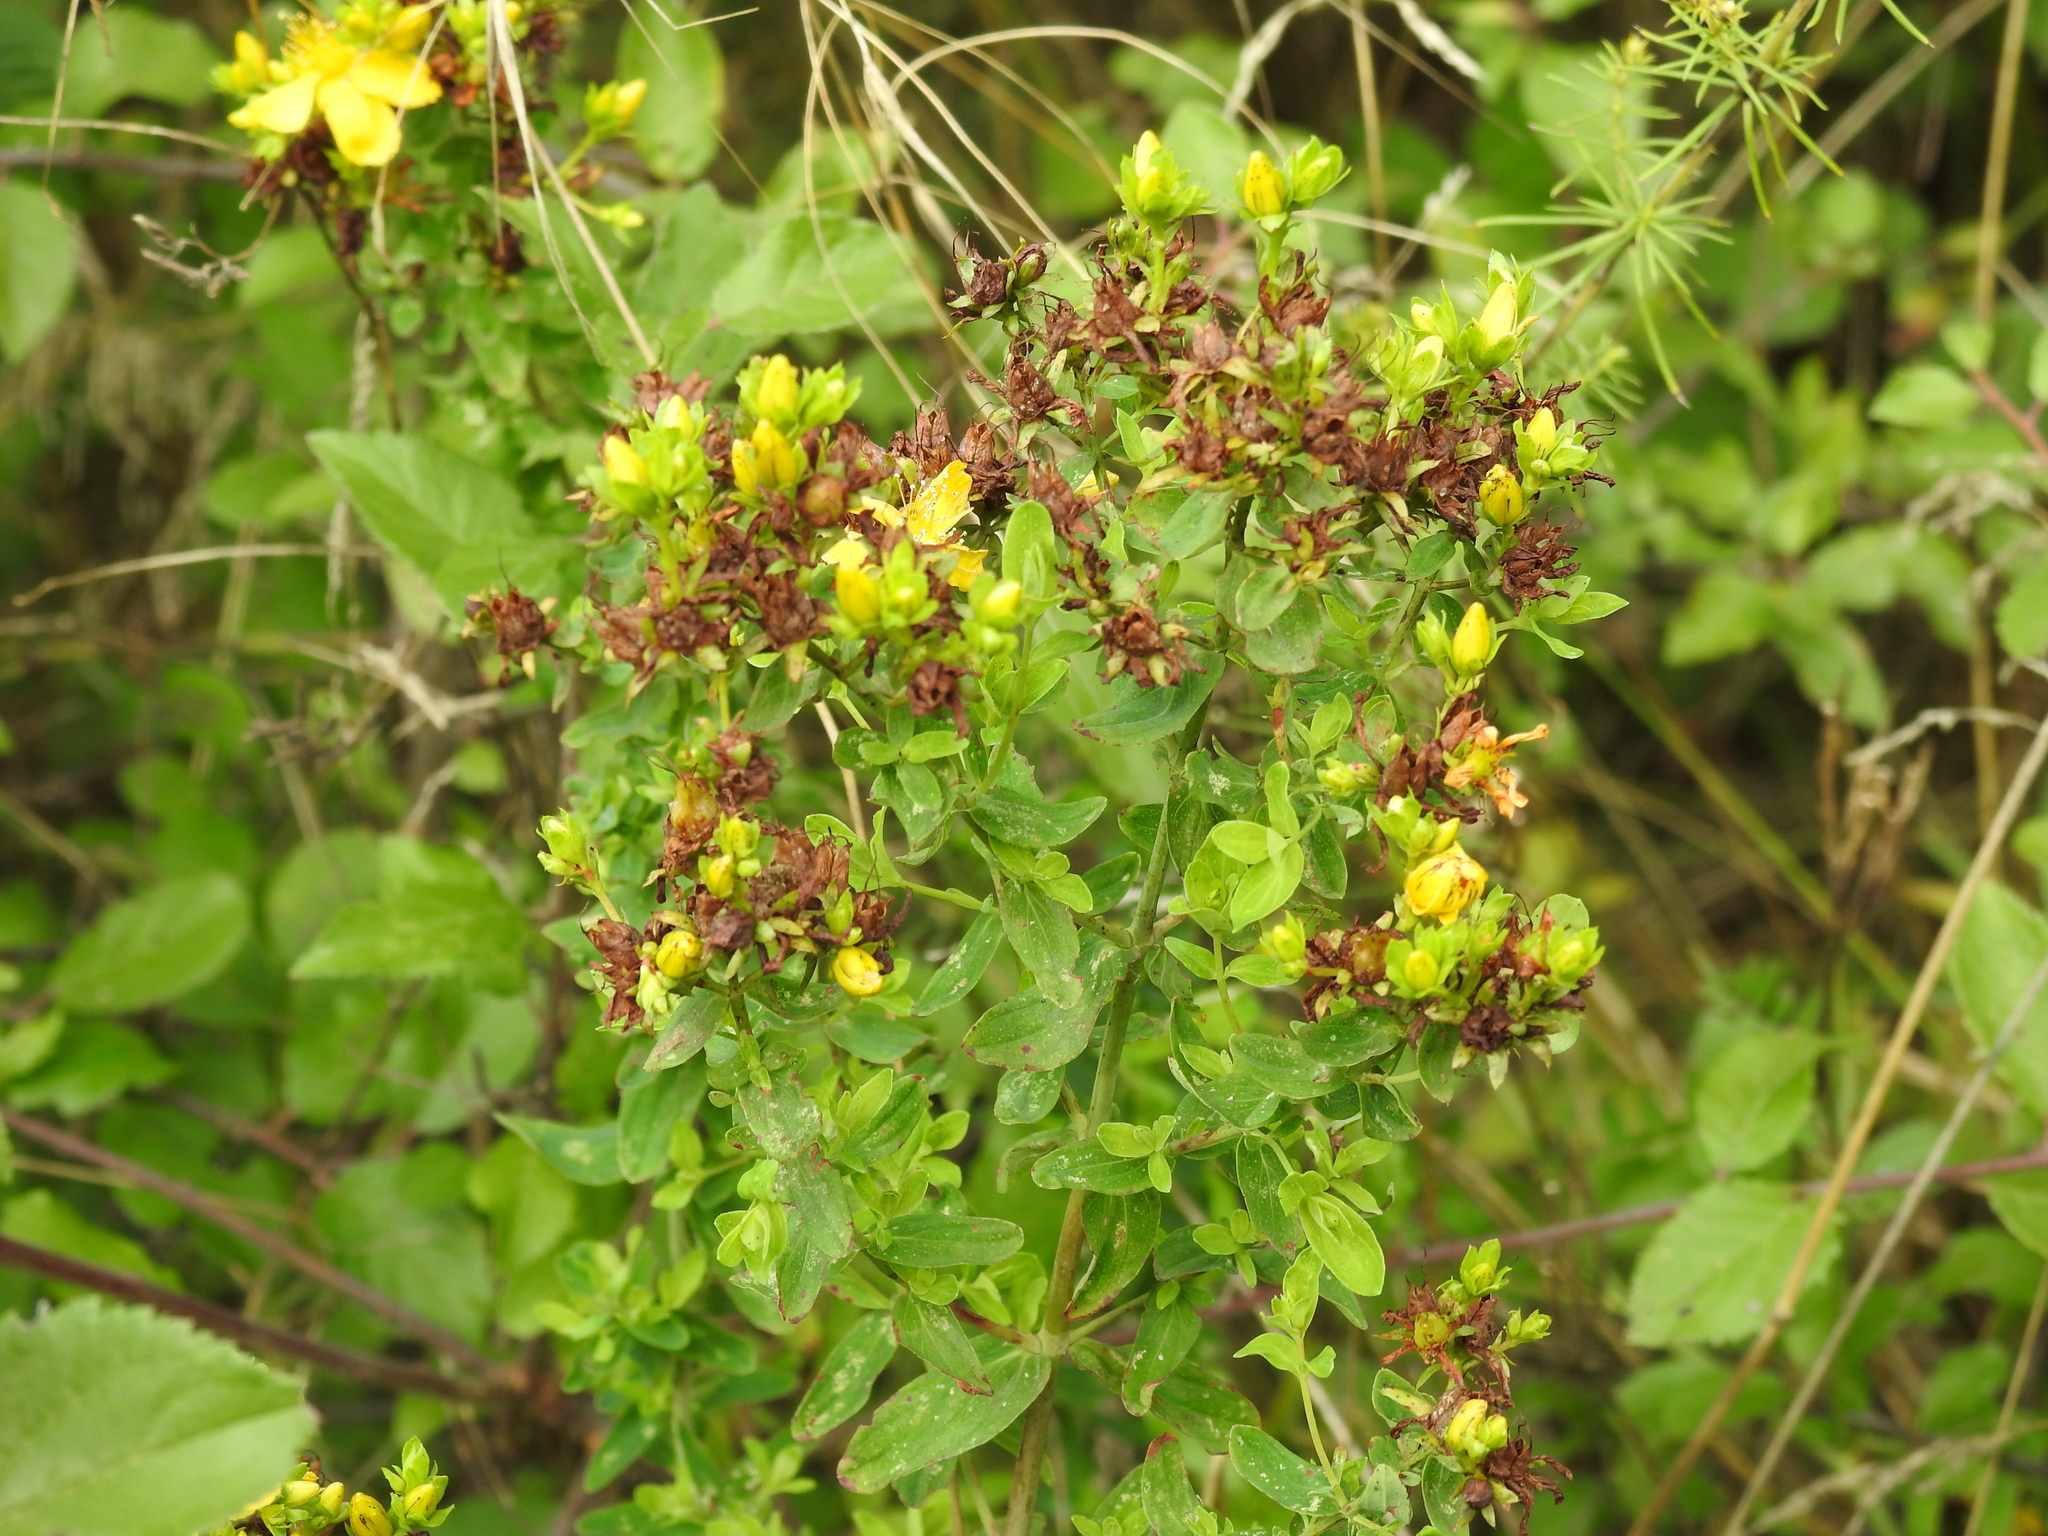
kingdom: Plantae
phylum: Tracheophyta
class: Magnoliopsida
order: Malpighiales
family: Hypericaceae
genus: Hypericum
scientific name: Hypericum perforatum
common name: Common st. johnswort
